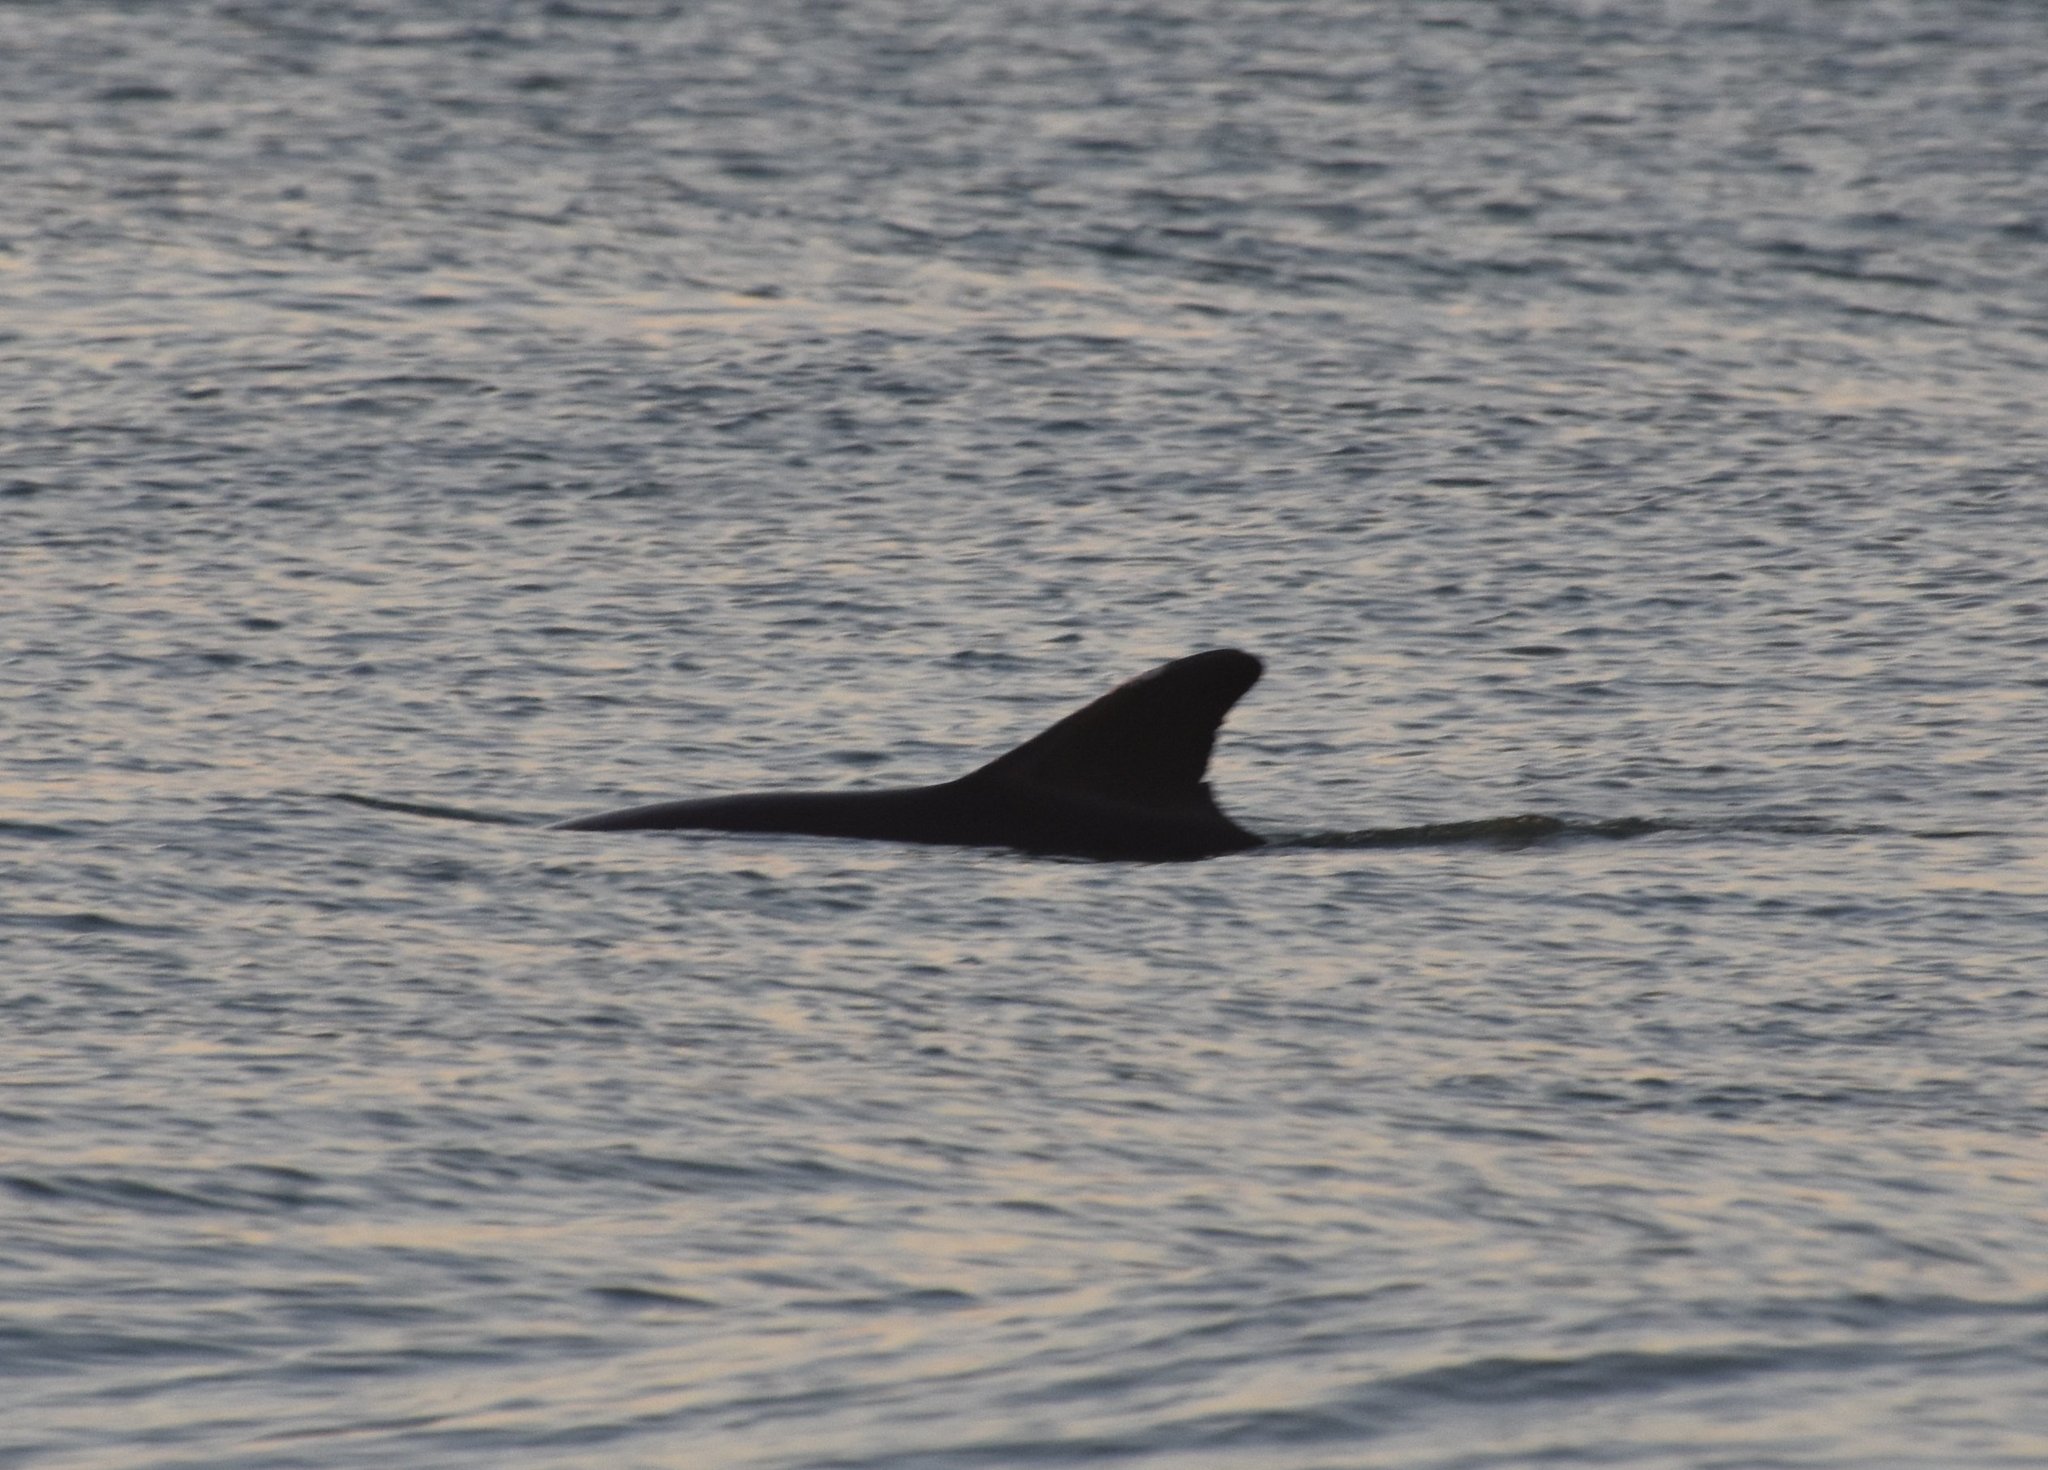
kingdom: Animalia
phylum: Chordata
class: Mammalia
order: Cetacea
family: Delphinidae
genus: Tursiops
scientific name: Tursiops truncatus
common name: Bottlenose dolphin
